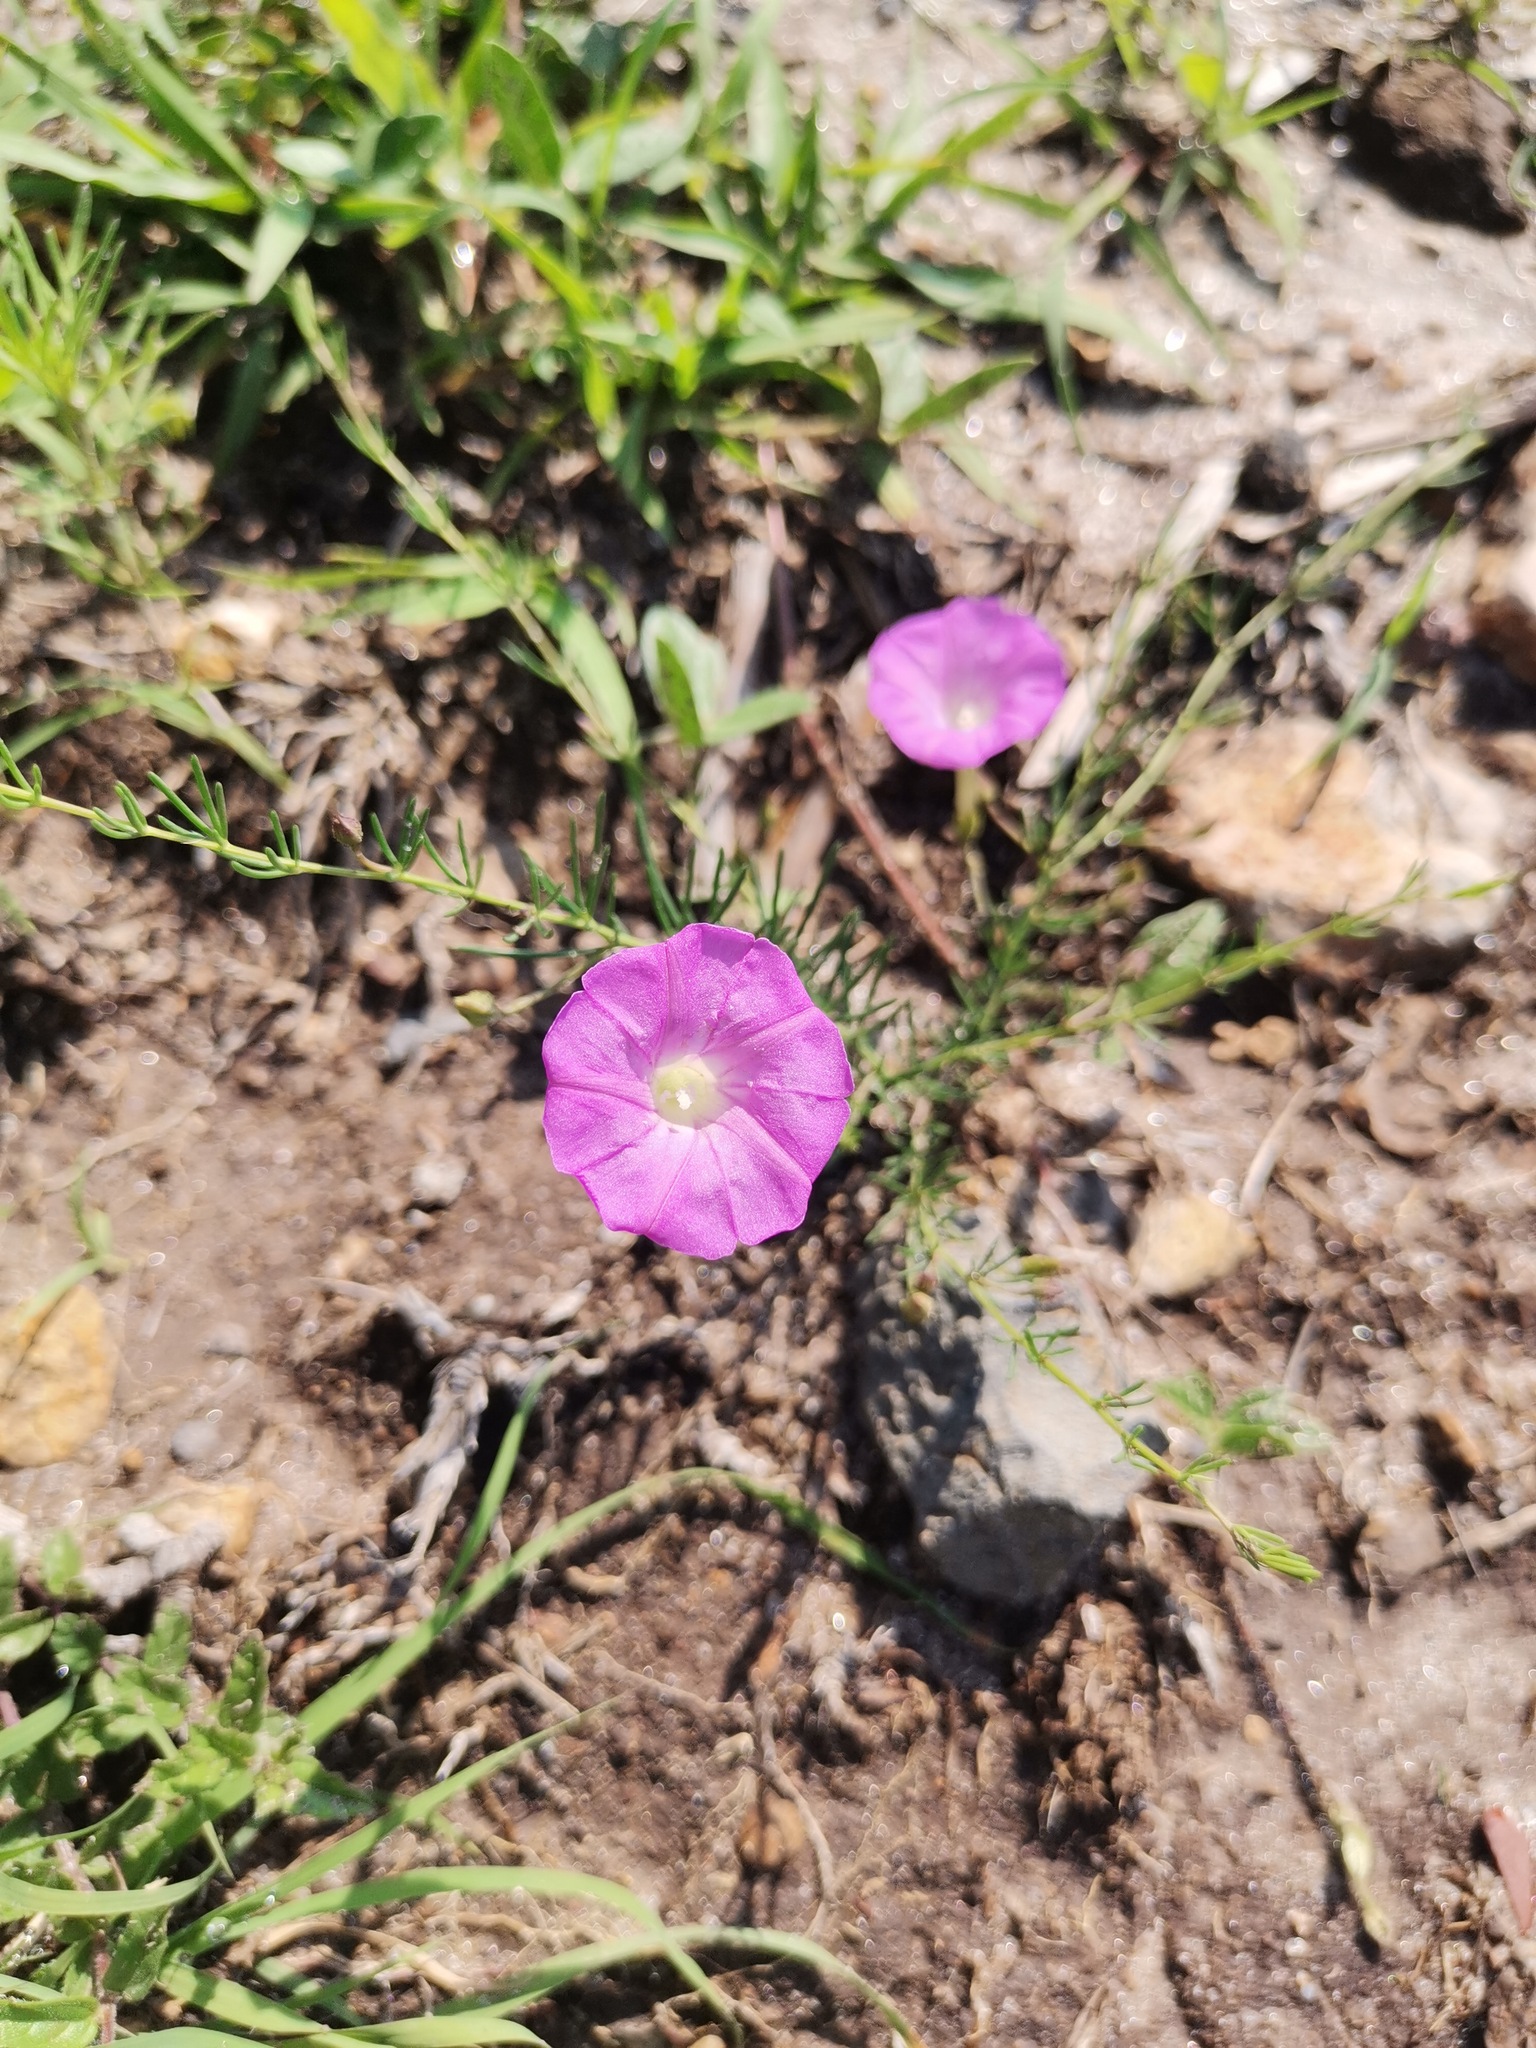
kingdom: Plantae
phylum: Tracheophyta
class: Magnoliopsida
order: Solanales
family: Convolvulaceae
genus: Ipomoea
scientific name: Ipomoea capillacea
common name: Purple morning-glory
